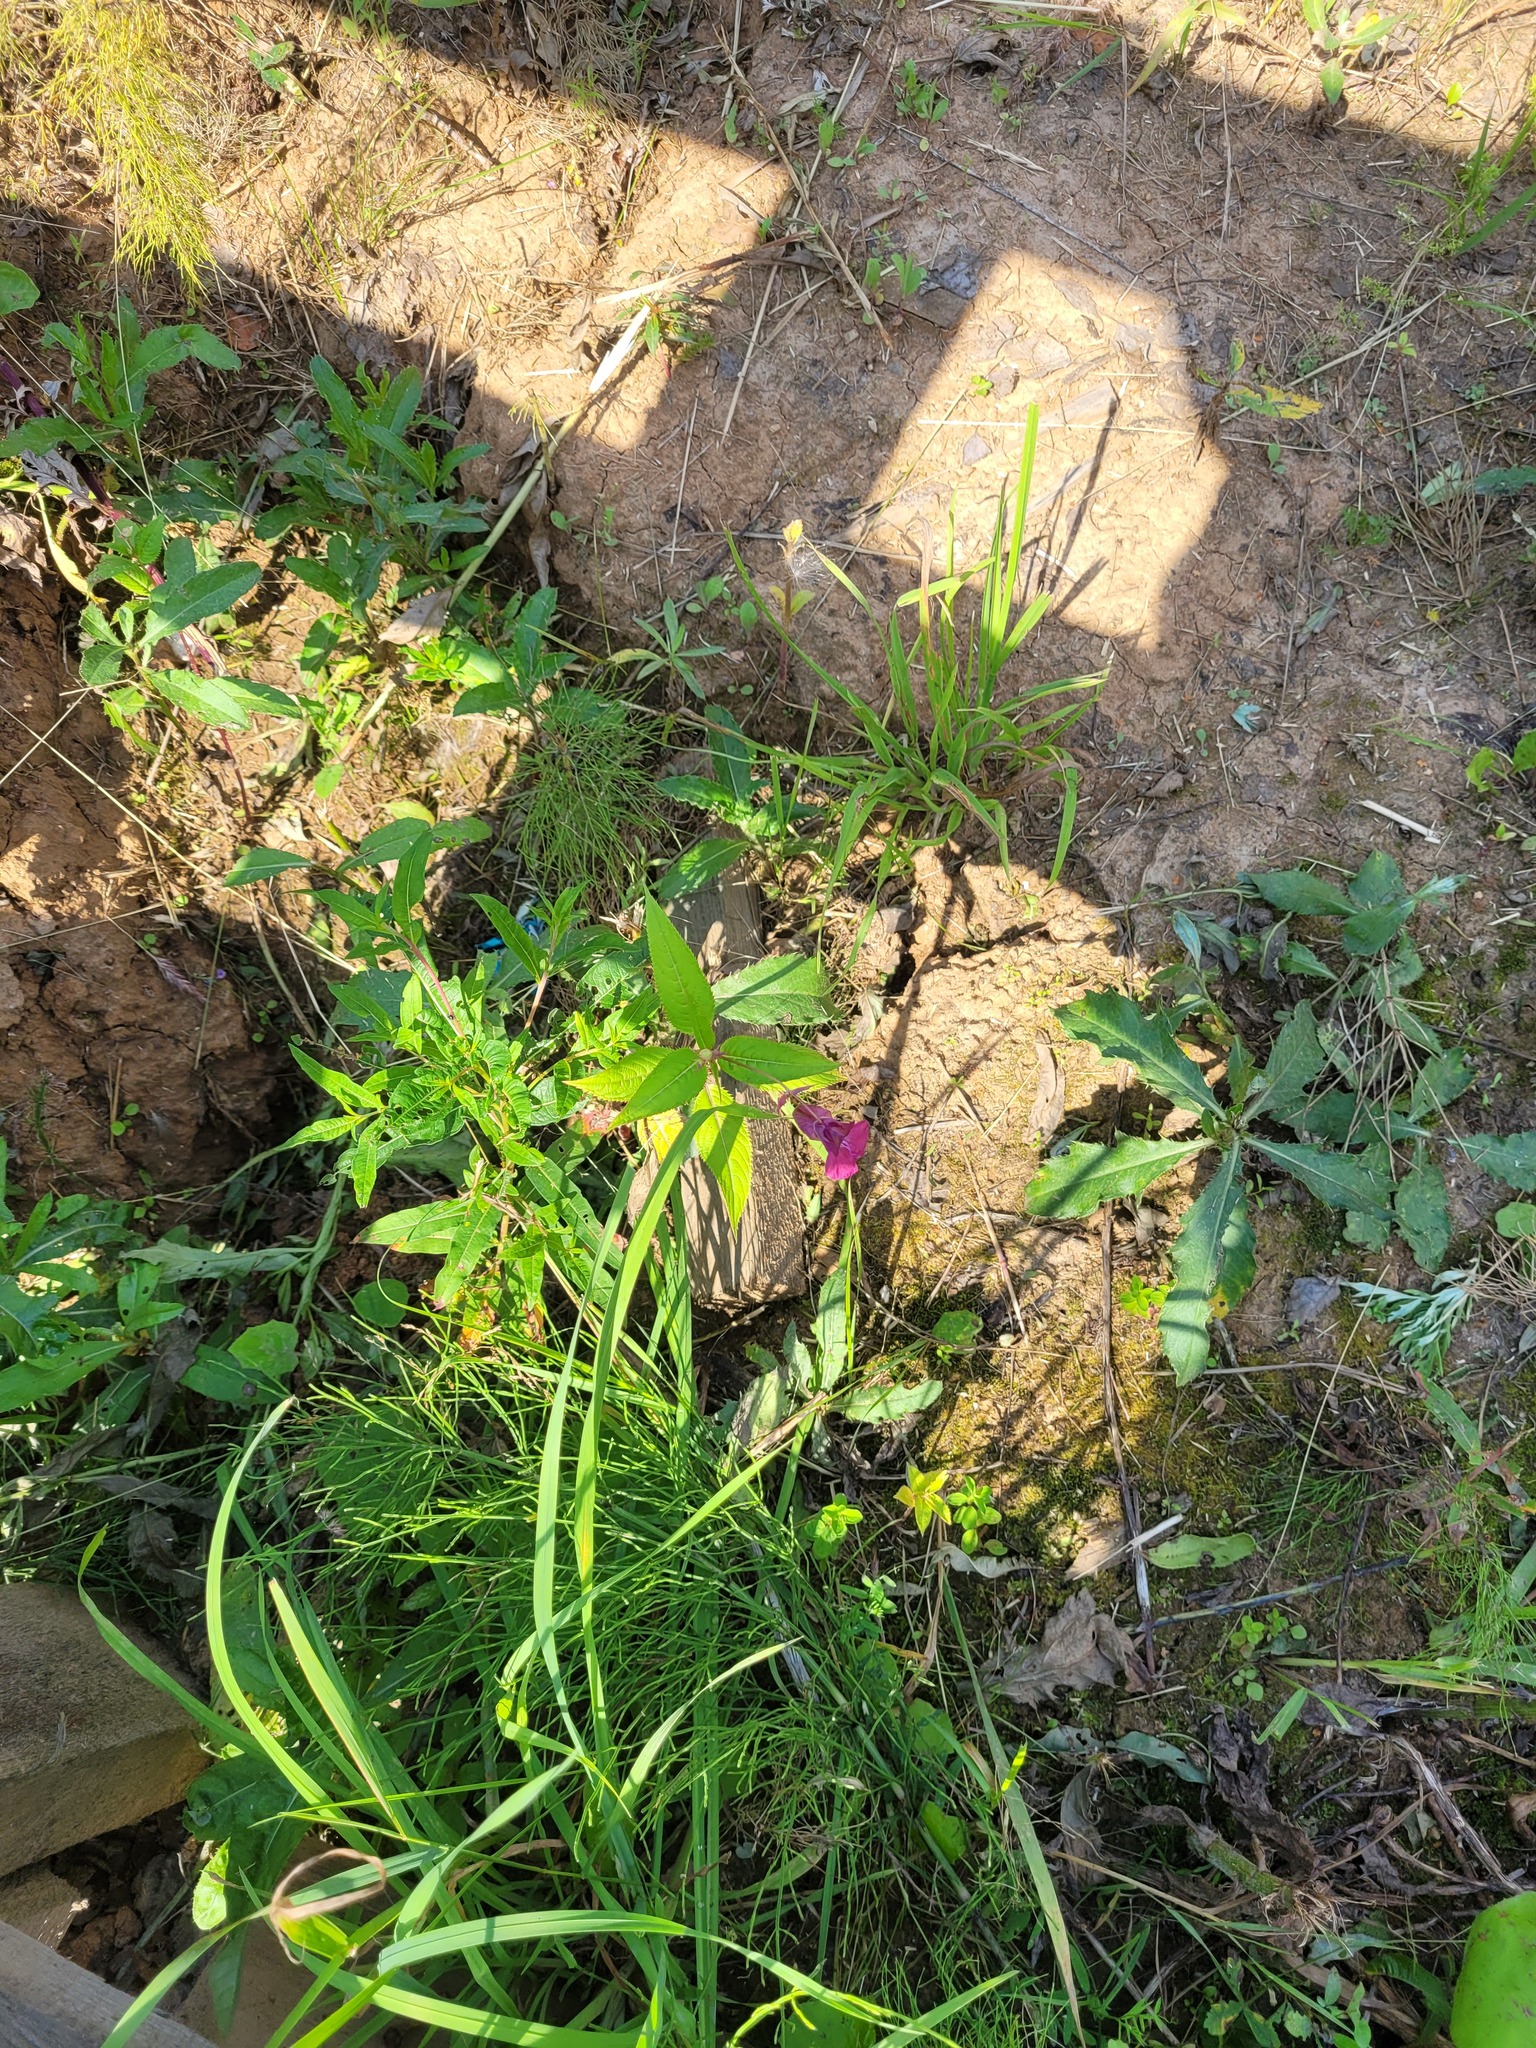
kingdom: Plantae
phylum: Tracheophyta
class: Magnoliopsida
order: Ericales
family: Balsaminaceae
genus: Impatiens
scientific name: Impatiens glandulifera
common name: Himalayan balsam
